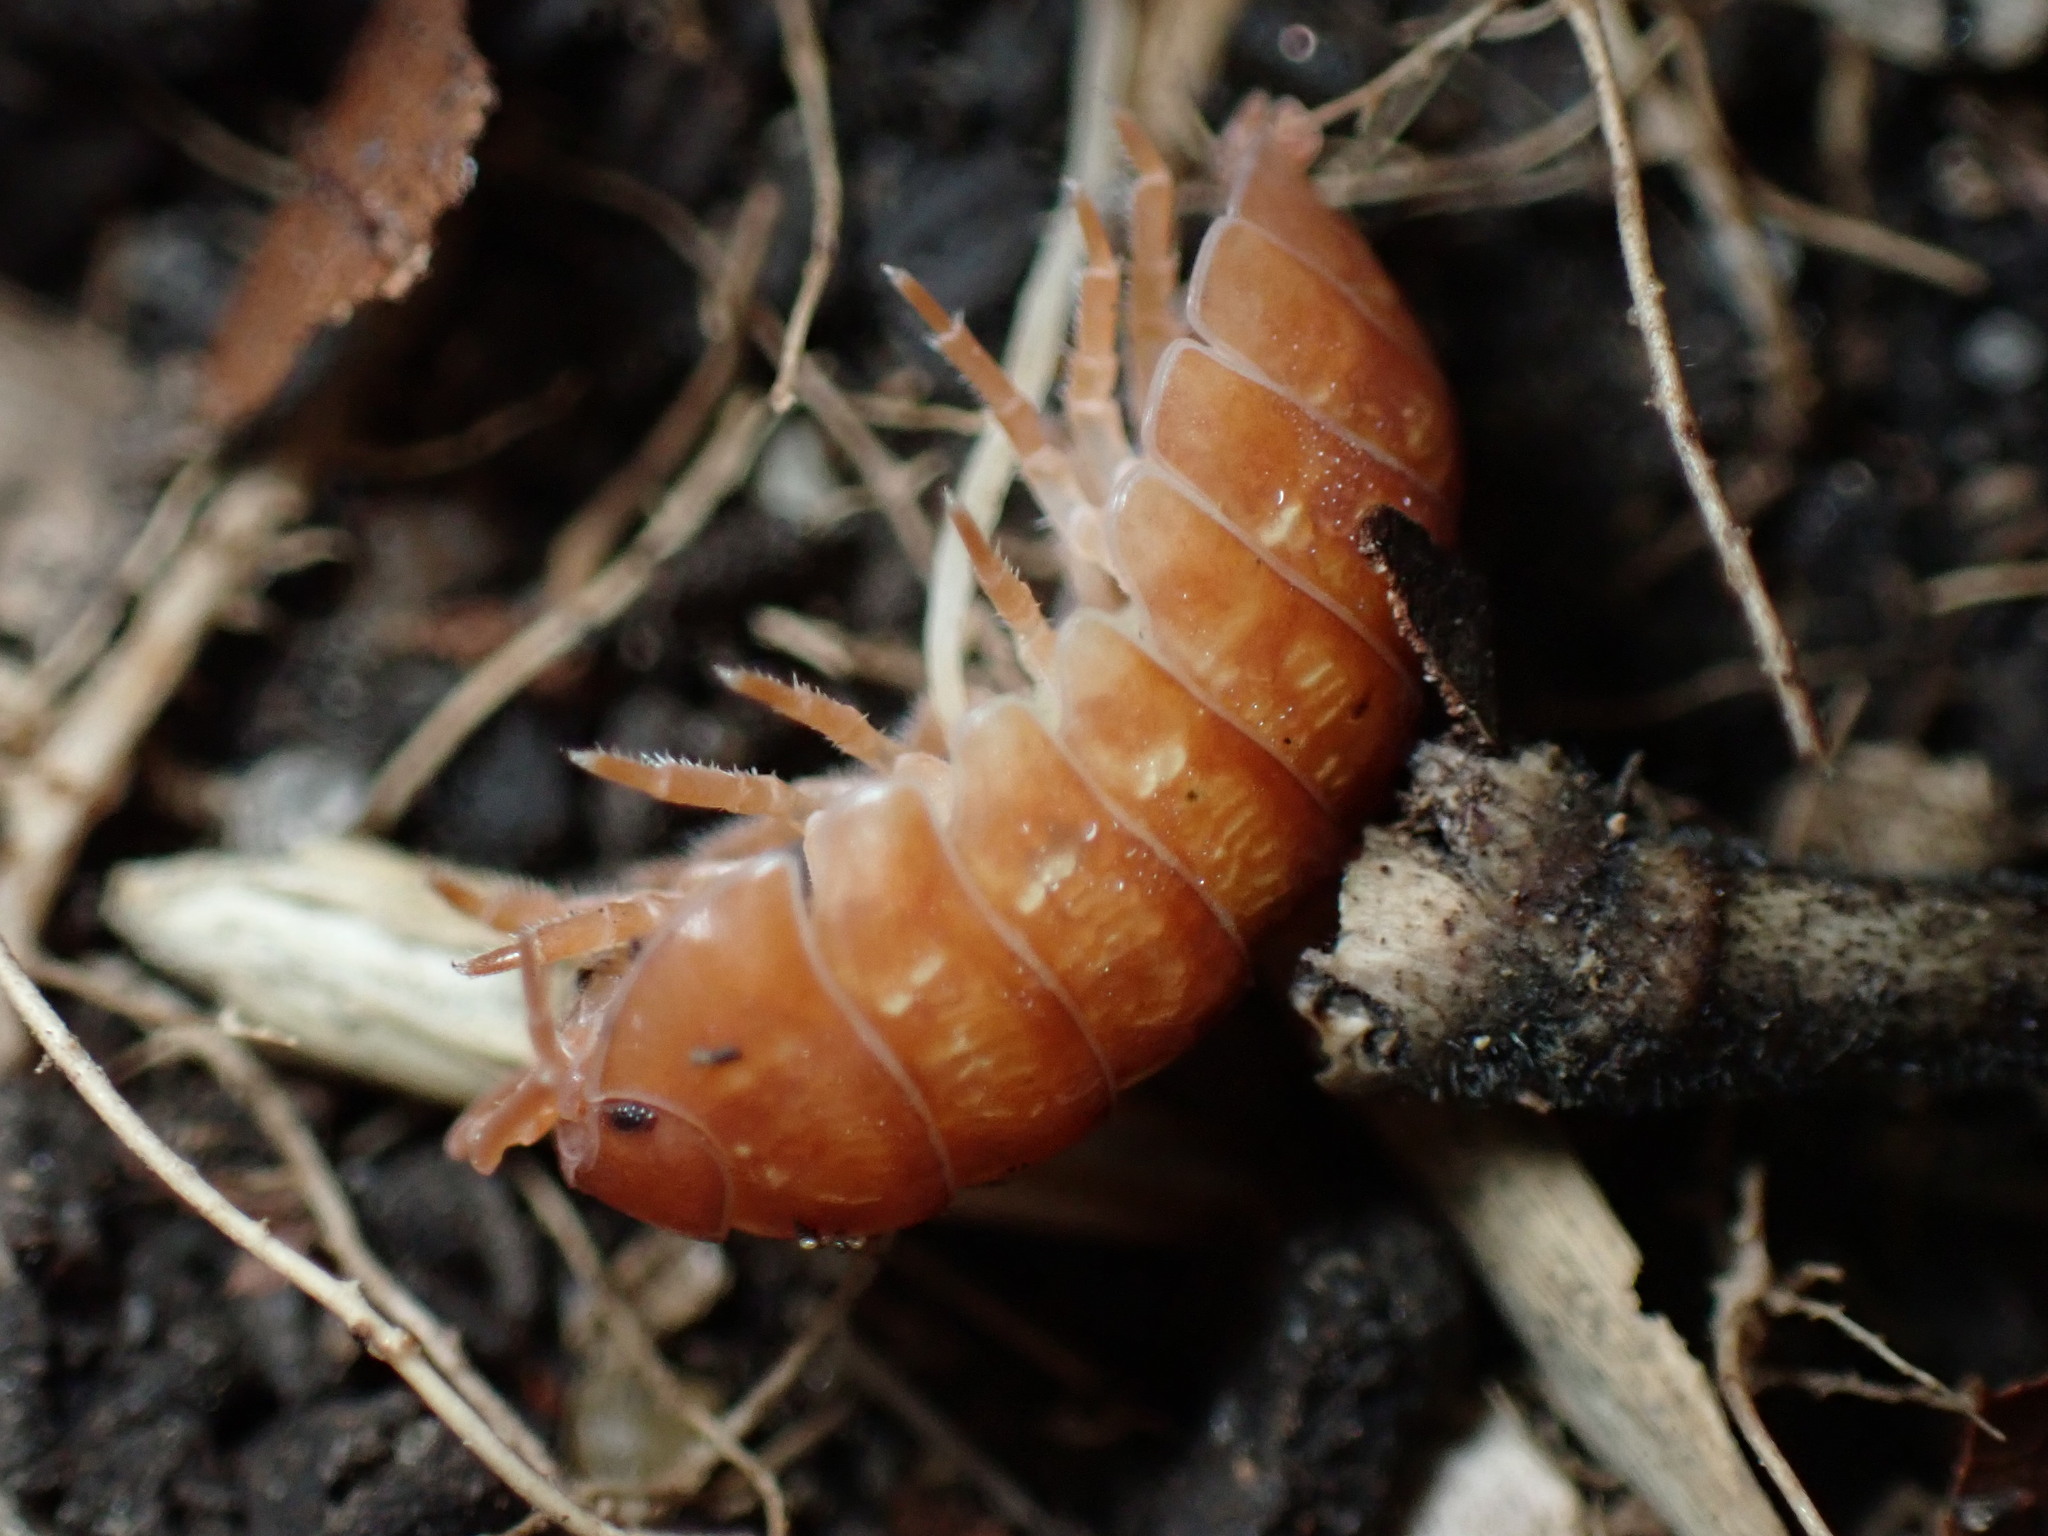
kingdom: Animalia
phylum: Arthropoda
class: Malacostraca
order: Isopoda
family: Armadillidiidae
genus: Armadillidium
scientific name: Armadillidium vulgare
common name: Common pill woodlouse
